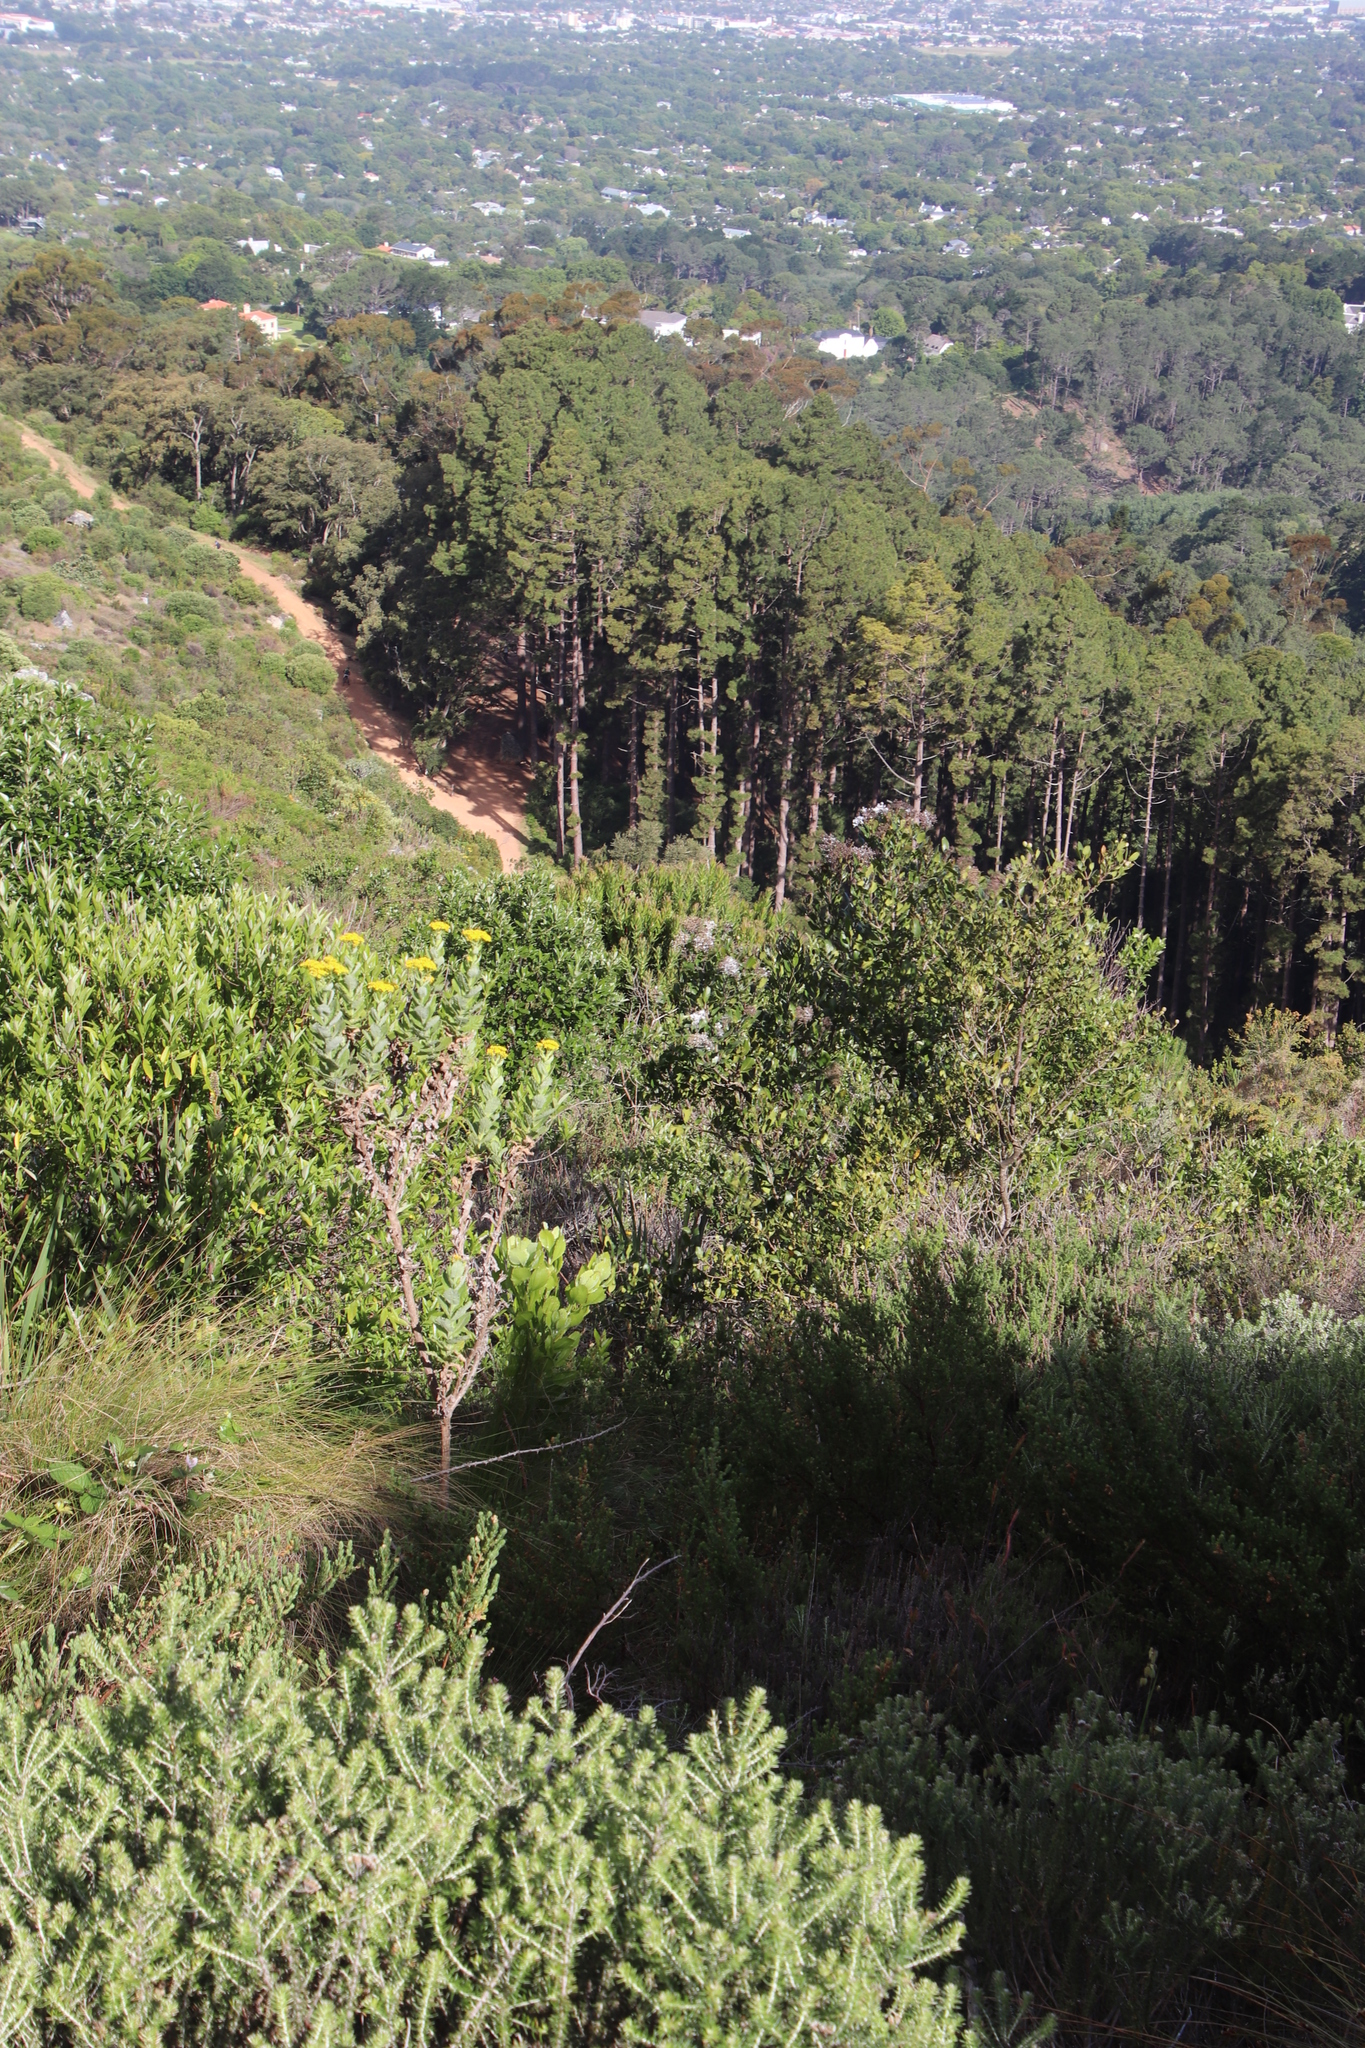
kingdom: Plantae
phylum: Tracheophyta
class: Magnoliopsida
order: Lamiales
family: Oleaceae
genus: Olea
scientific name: Olea capensis
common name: Black ironwood
